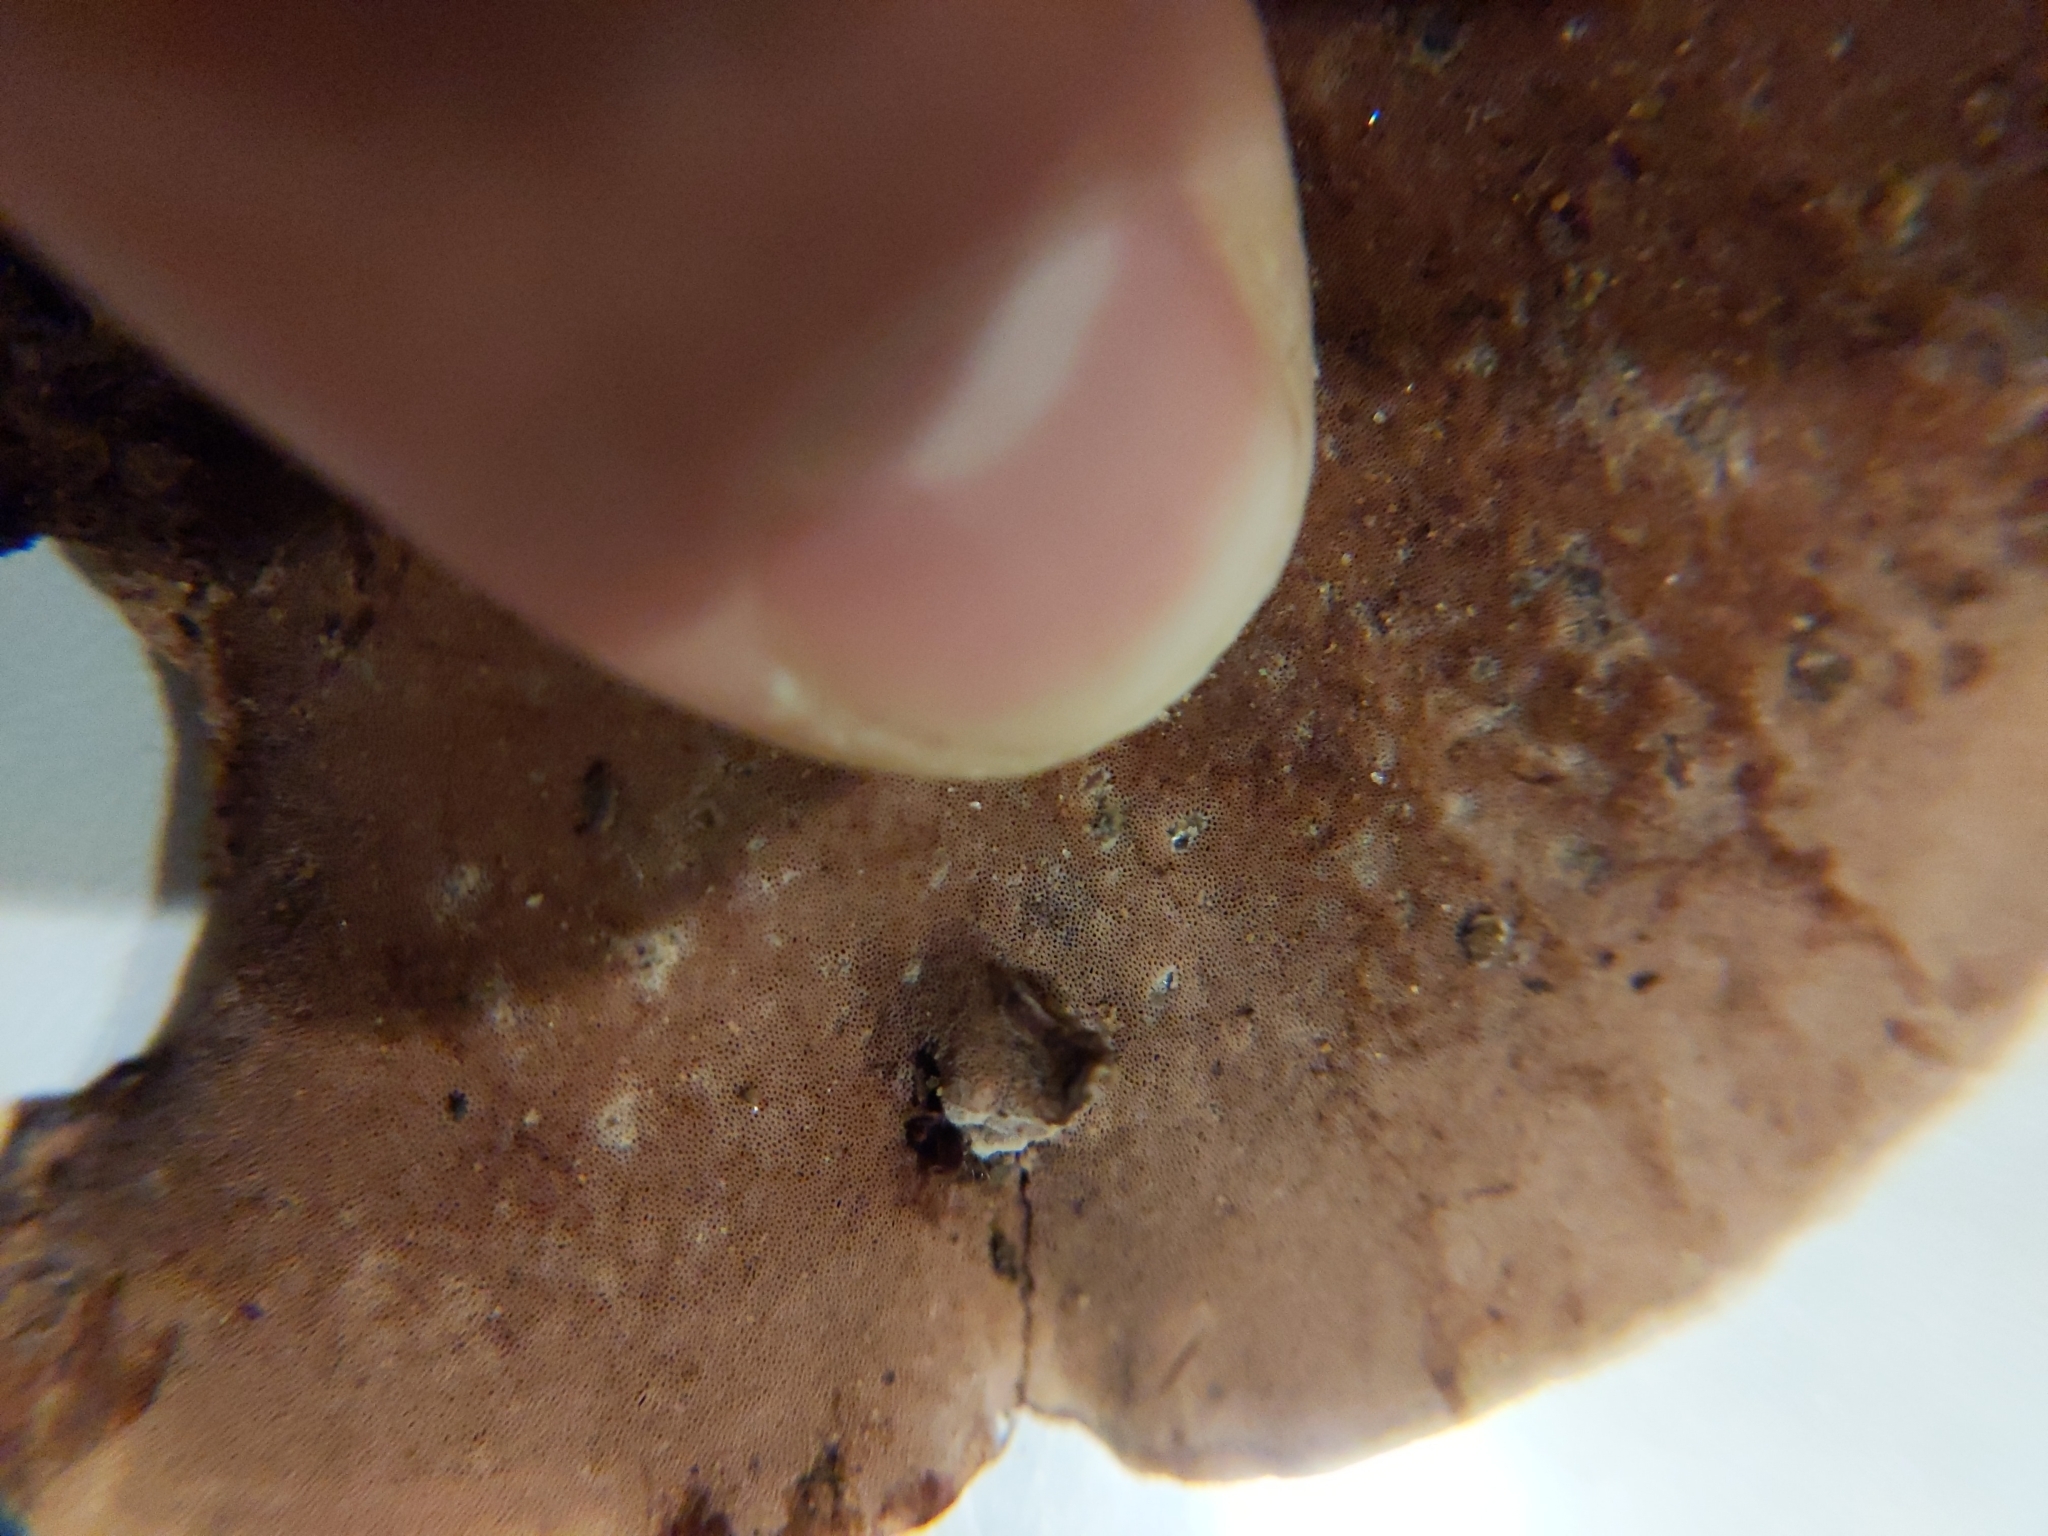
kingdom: Fungi
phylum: Basidiomycota
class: Agaricomycetes
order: Polyporales
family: Steccherinaceae
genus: Nigroporus
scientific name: Nigroporus vinosus
